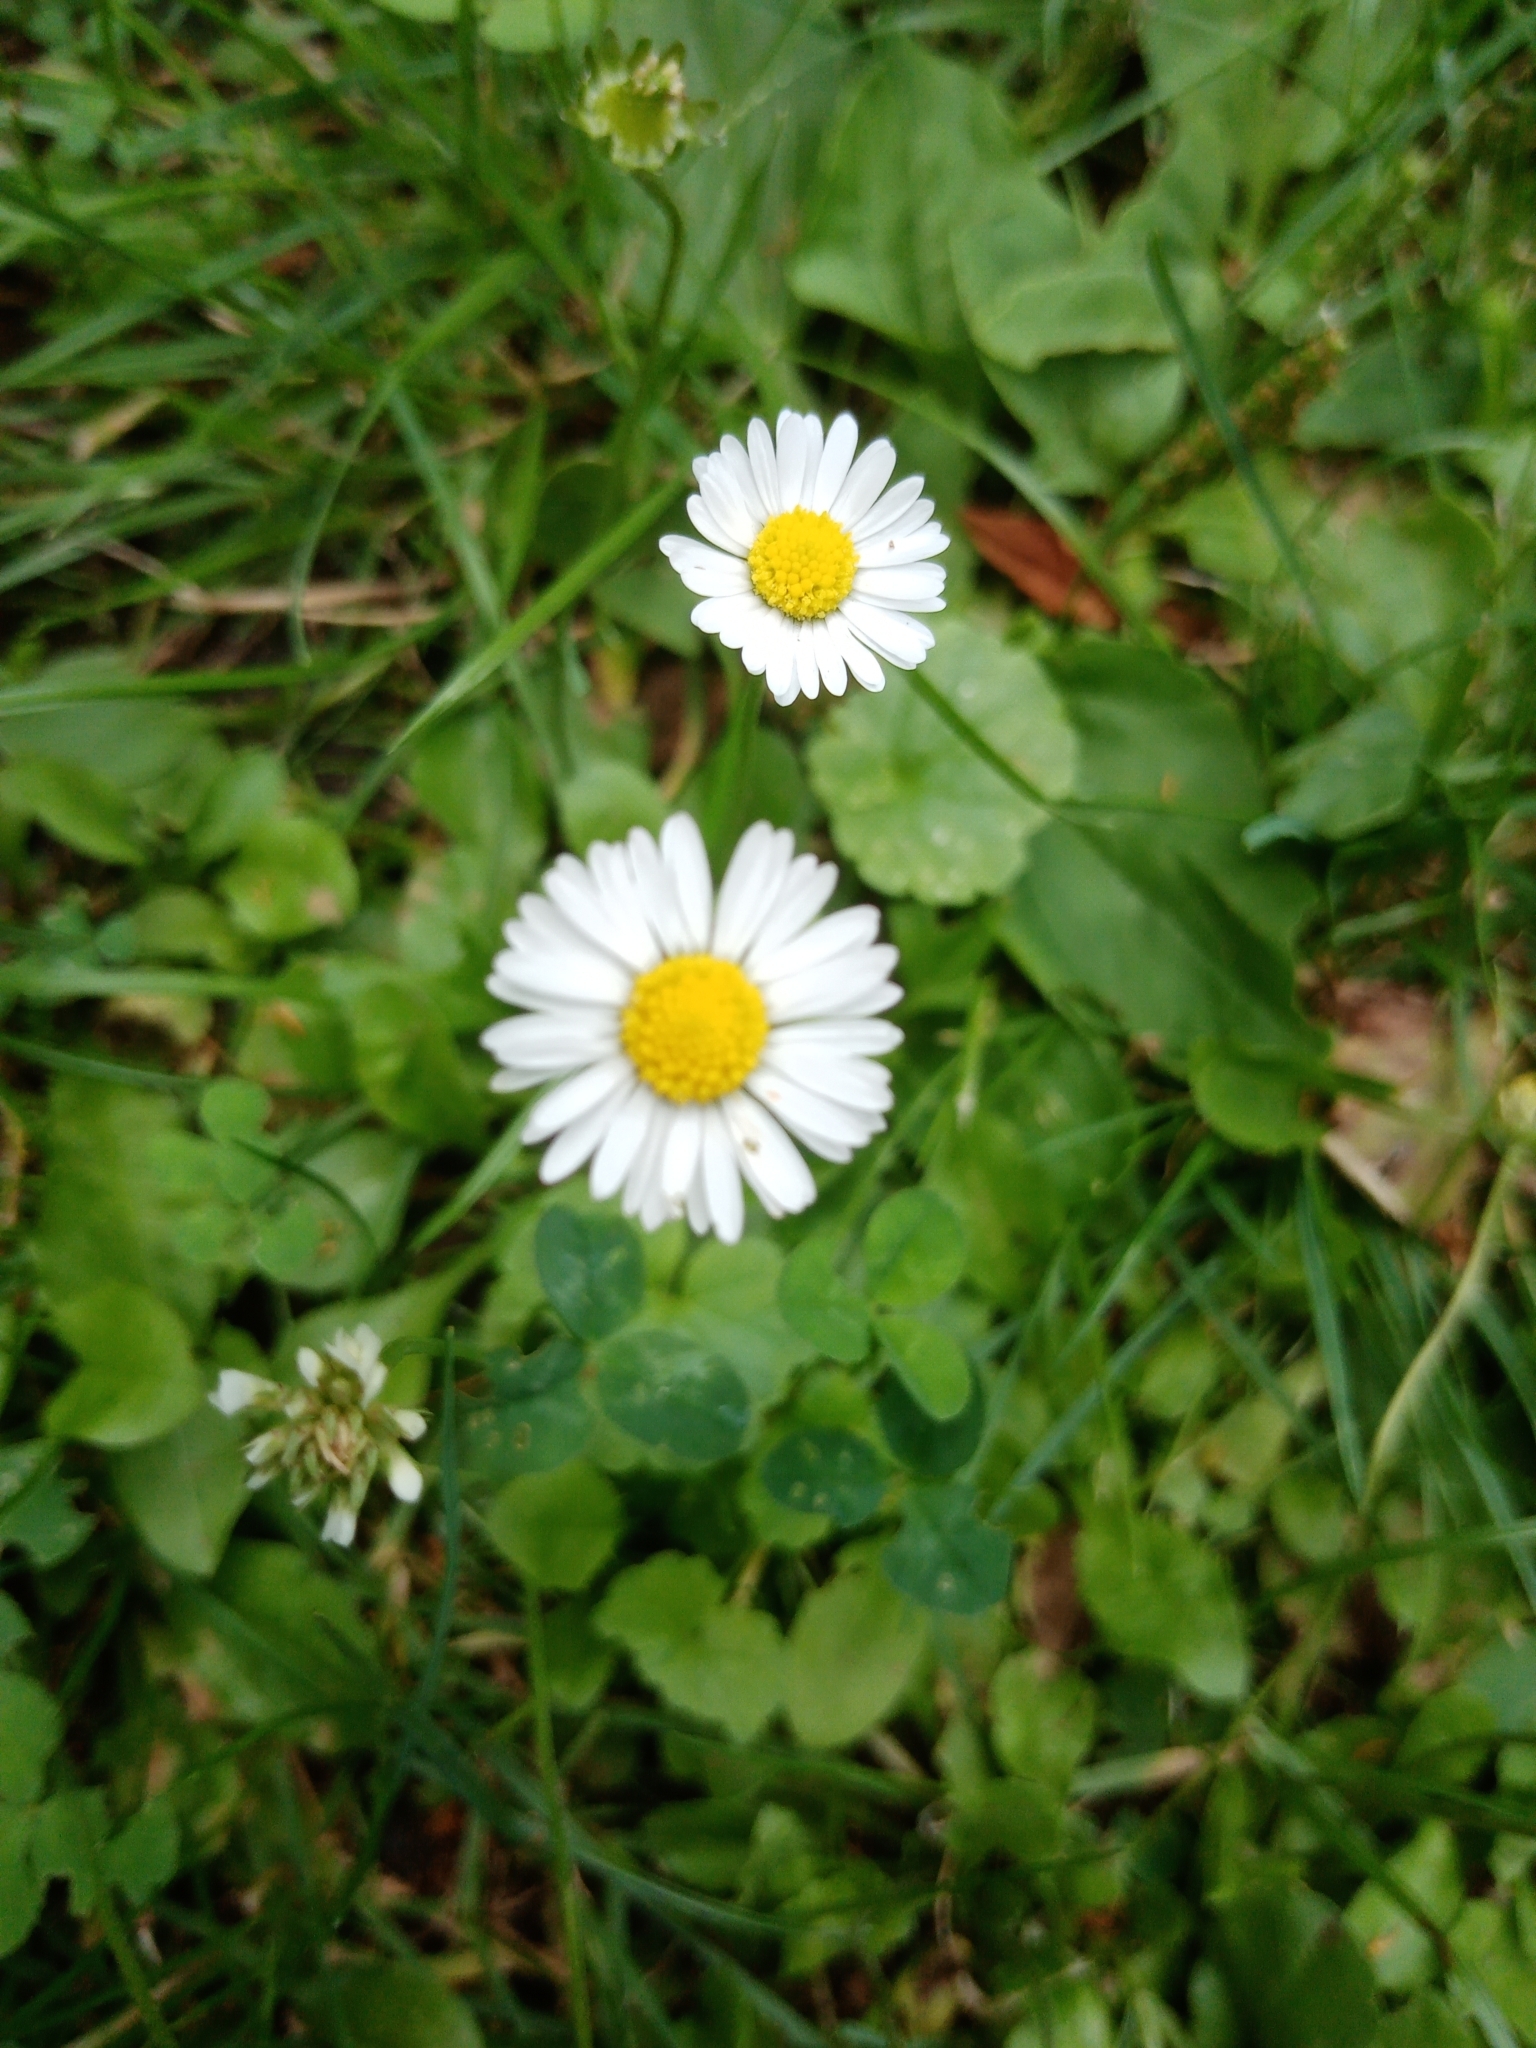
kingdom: Plantae
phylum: Tracheophyta
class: Magnoliopsida
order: Asterales
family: Asteraceae
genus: Bellis
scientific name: Bellis perennis
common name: Lawndaisy
